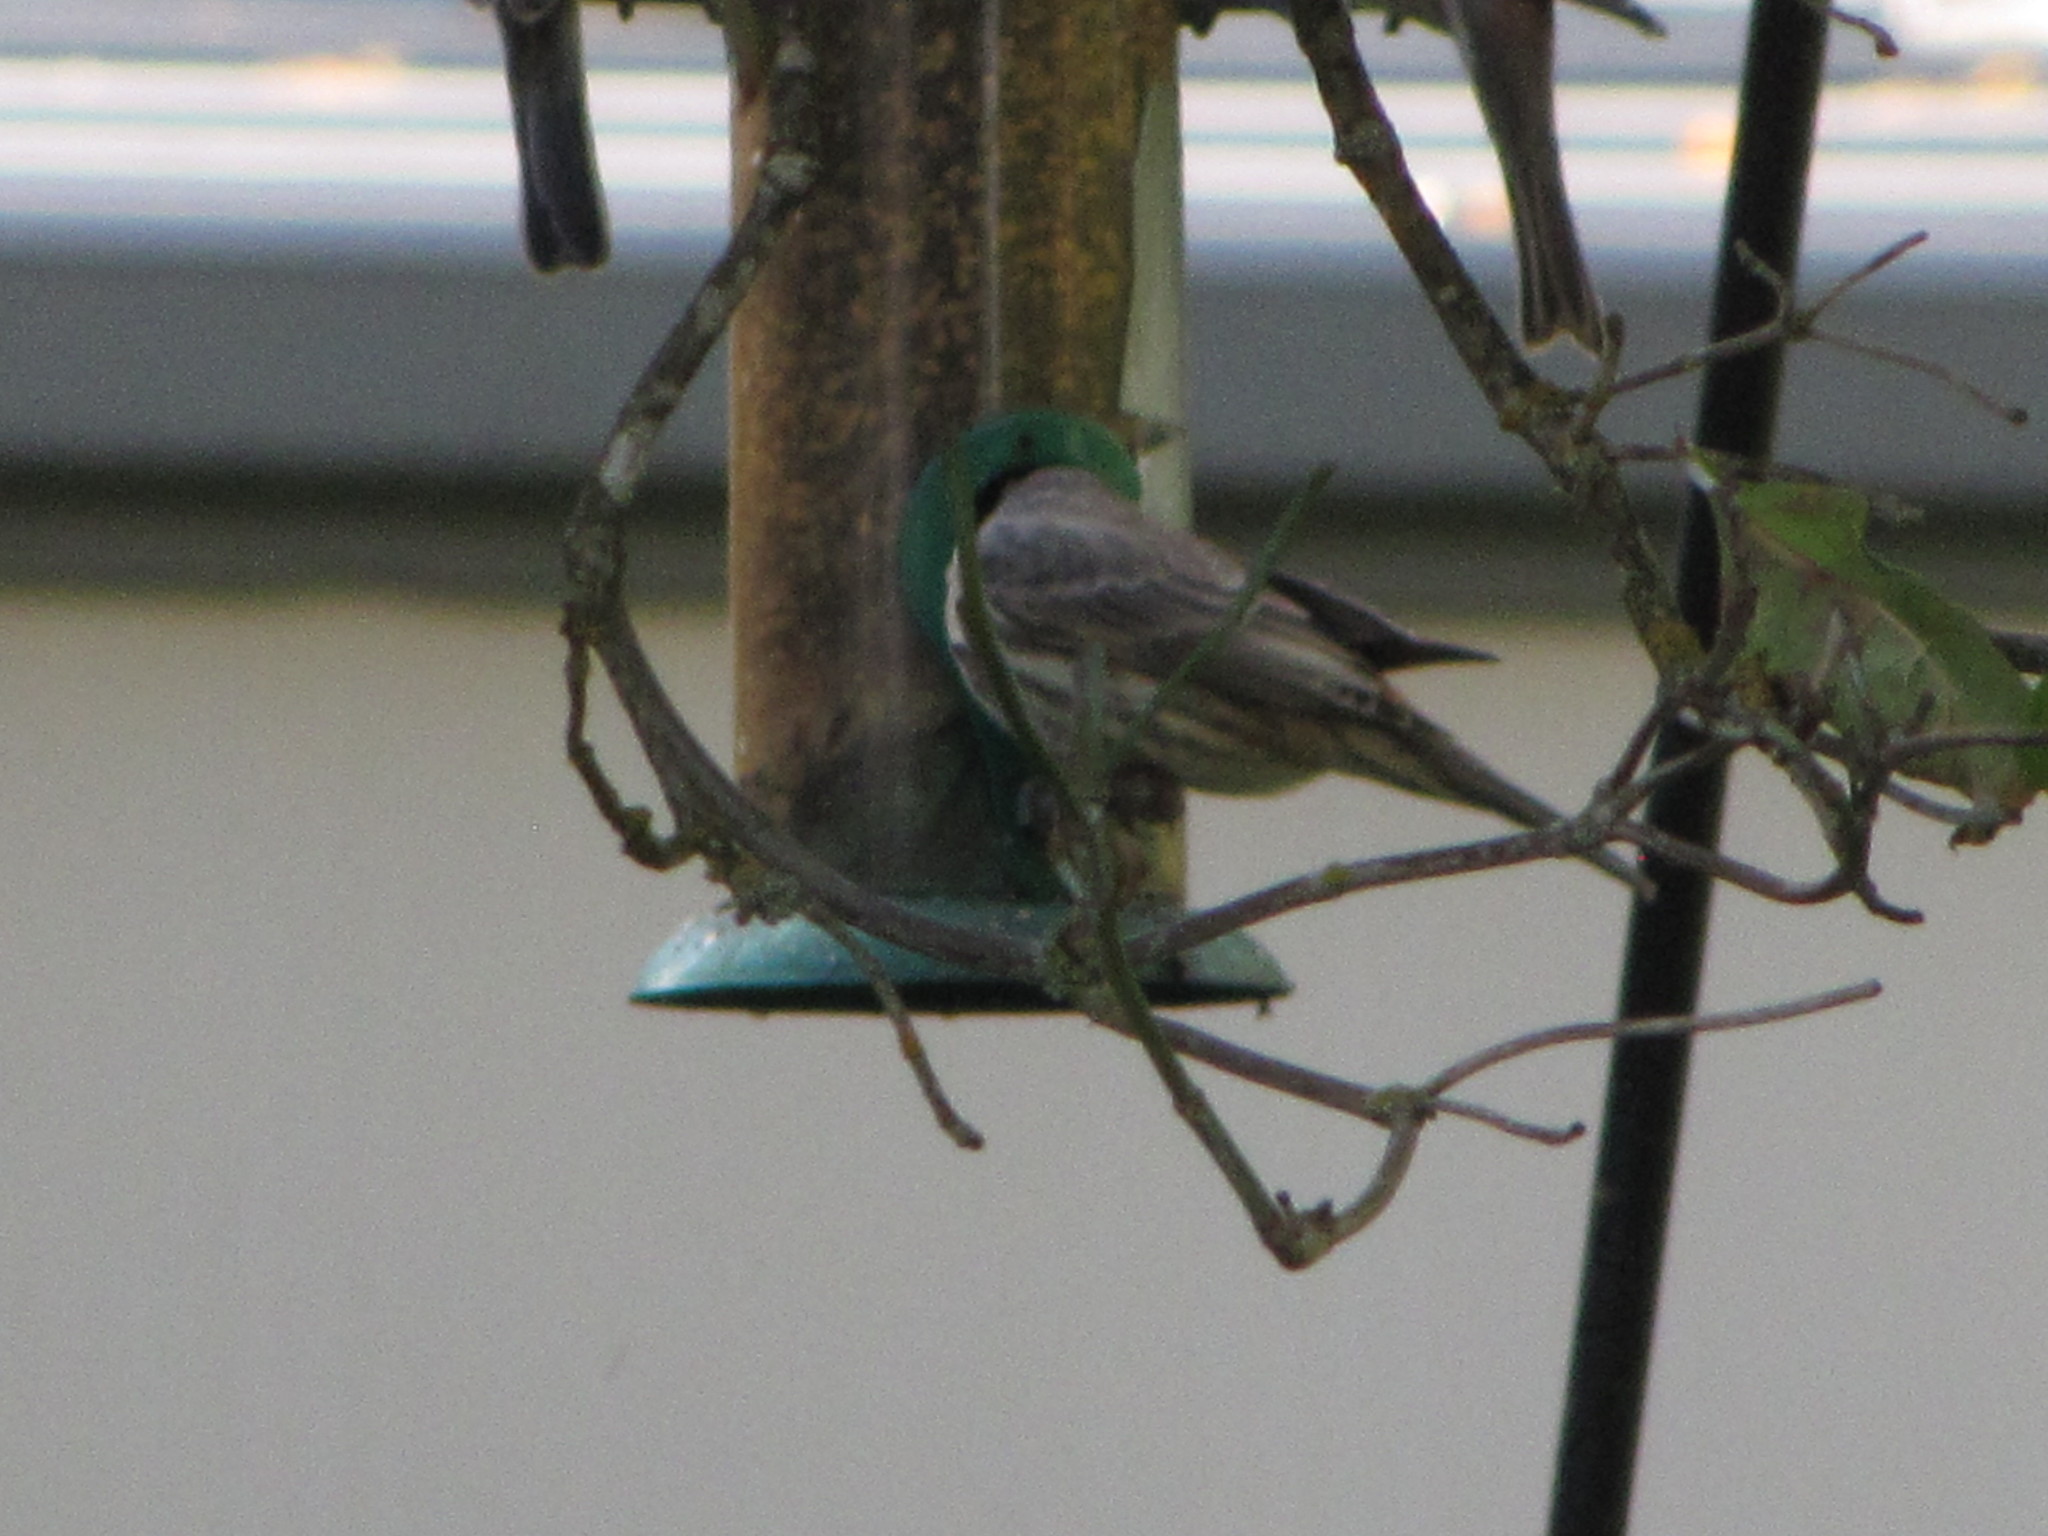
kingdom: Animalia
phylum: Chordata
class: Aves
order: Passeriformes
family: Fringillidae
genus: Haemorhous
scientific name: Haemorhous mexicanus
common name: House finch
